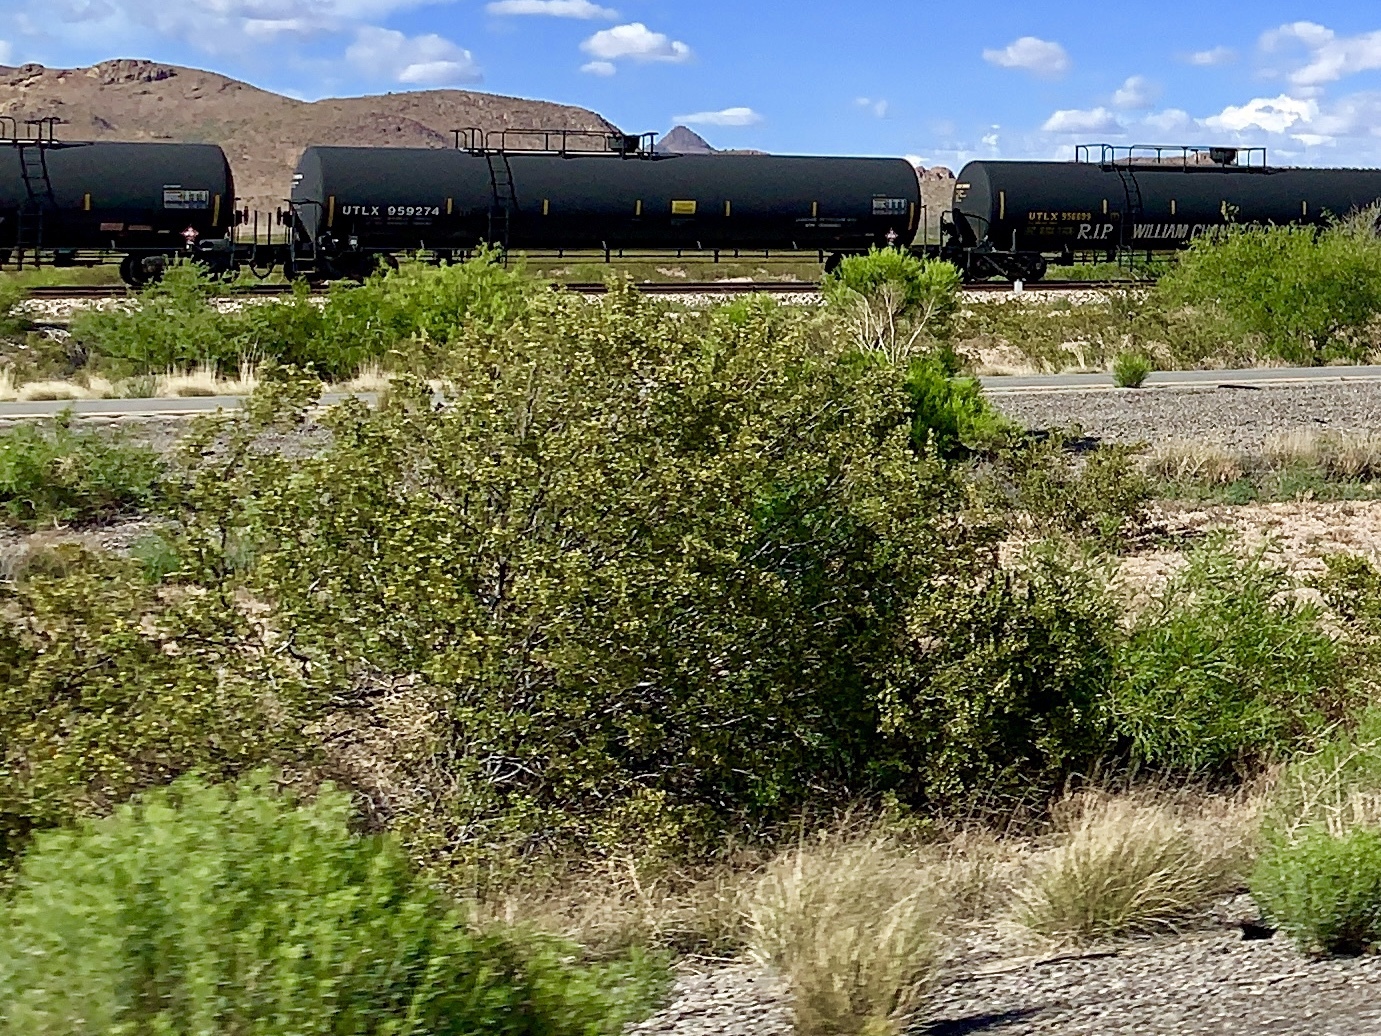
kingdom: Plantae
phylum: Tracheophyta
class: Magnoliopsida
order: Zygophyllales
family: Zygophyllaceae
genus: Larrea
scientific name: Larrea tridentata
